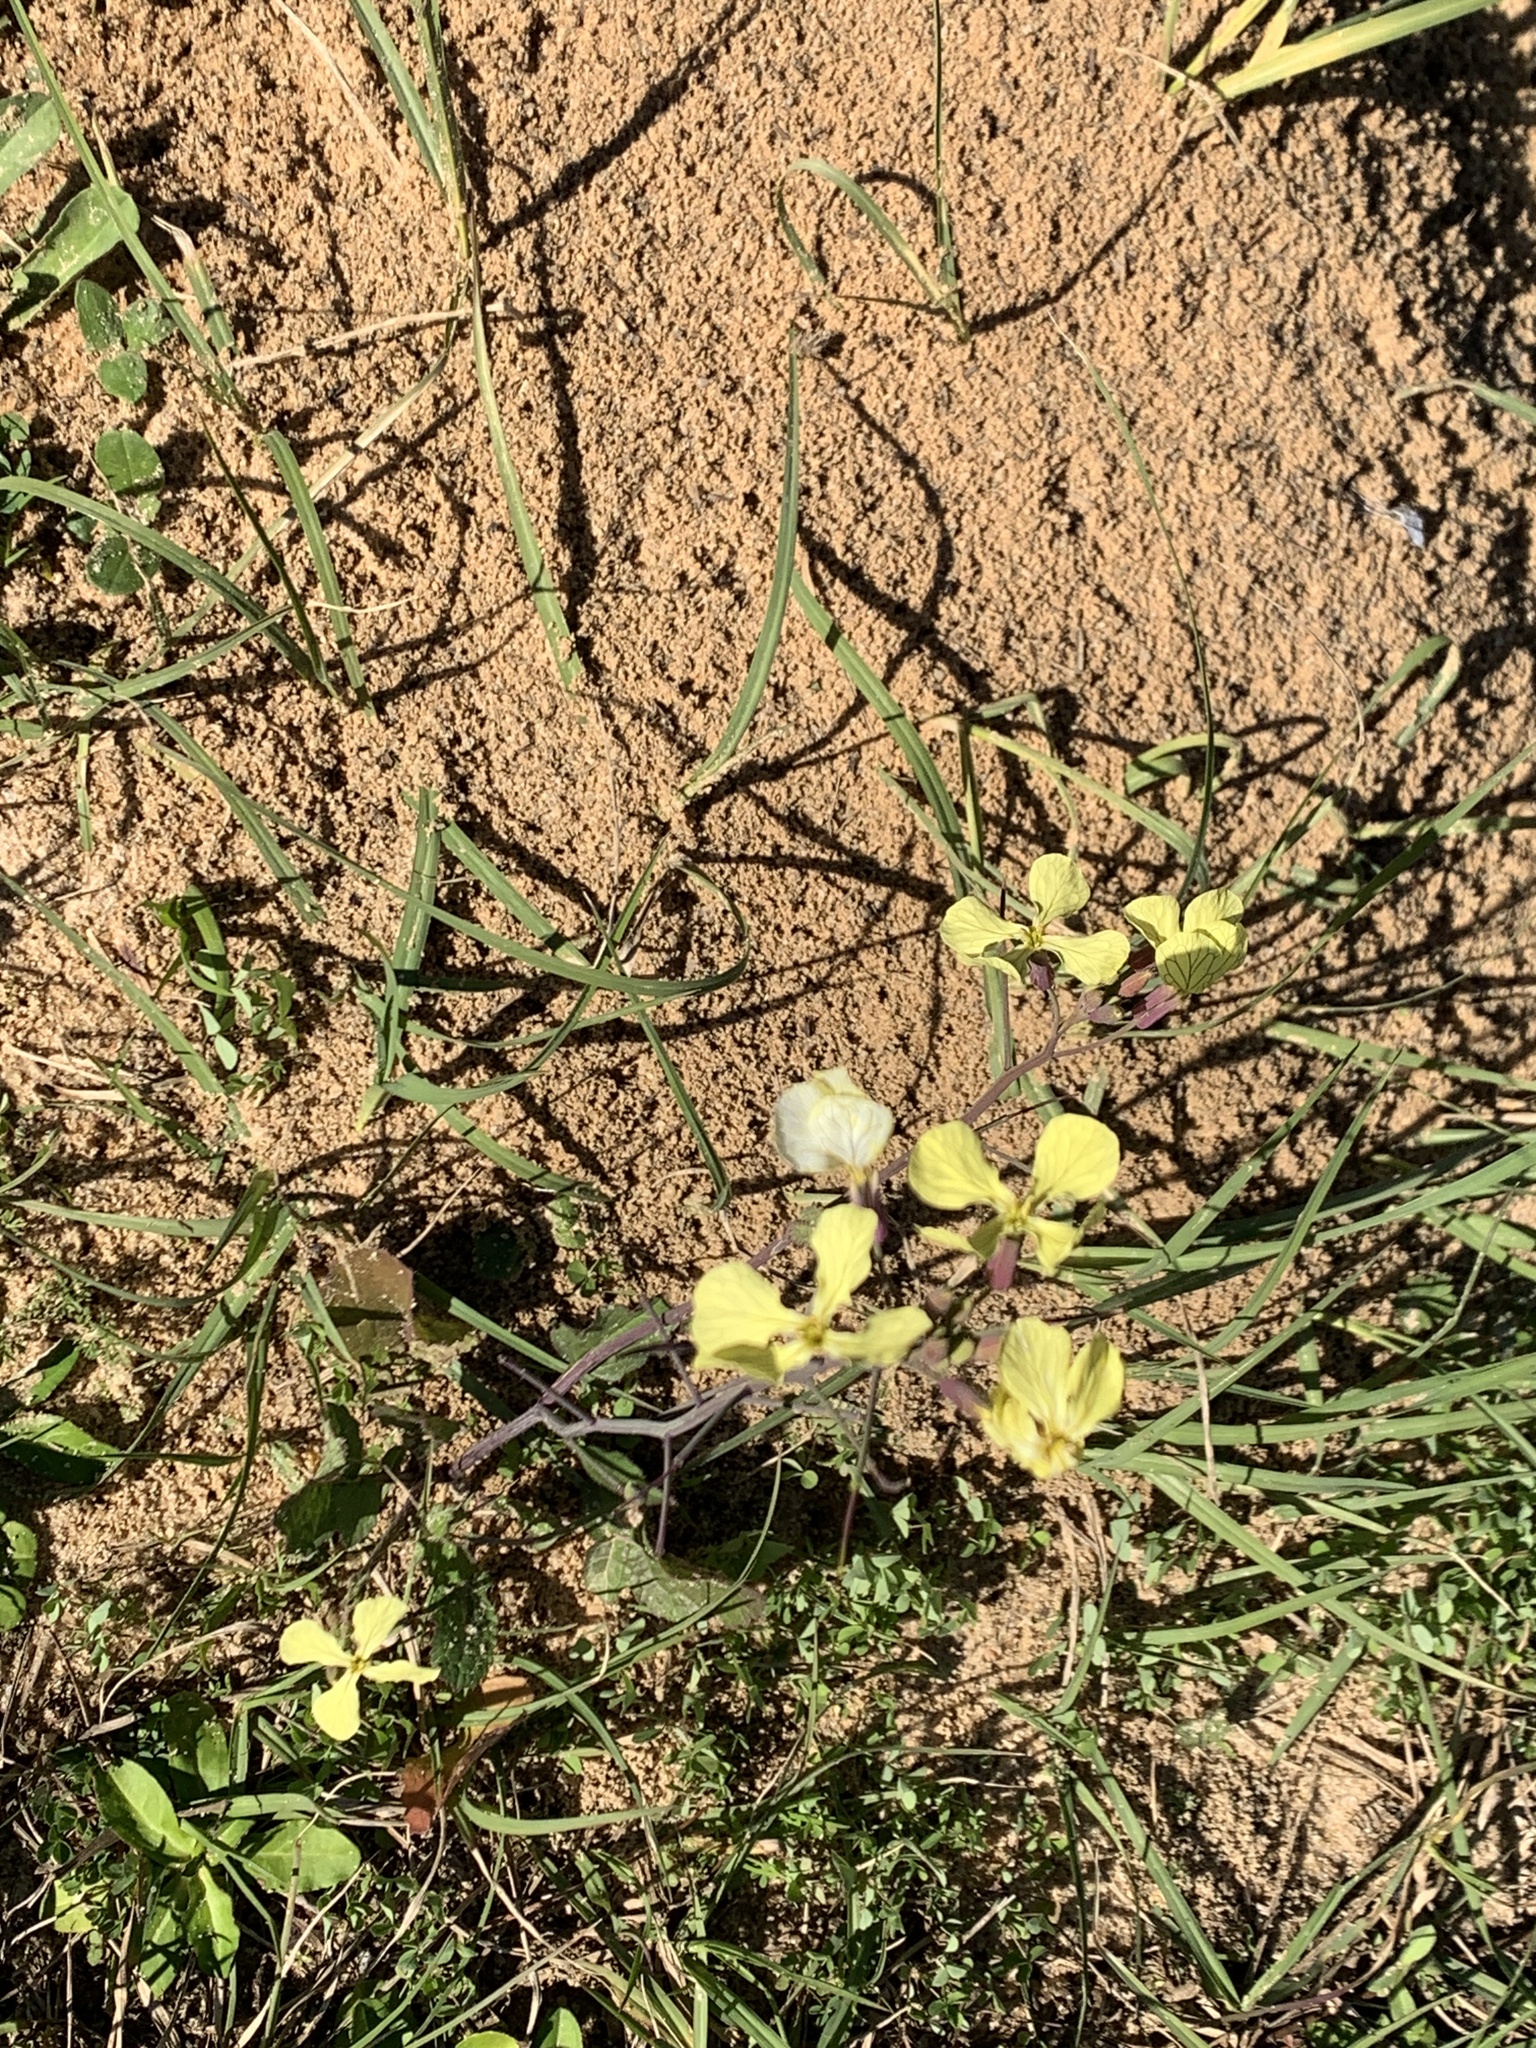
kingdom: Plantae
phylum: Tracheophyta
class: Magnoliopsida
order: Brassicales
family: Brassicaceae
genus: Raphanus
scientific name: Raphanus raphanistrum
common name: Wild radish
